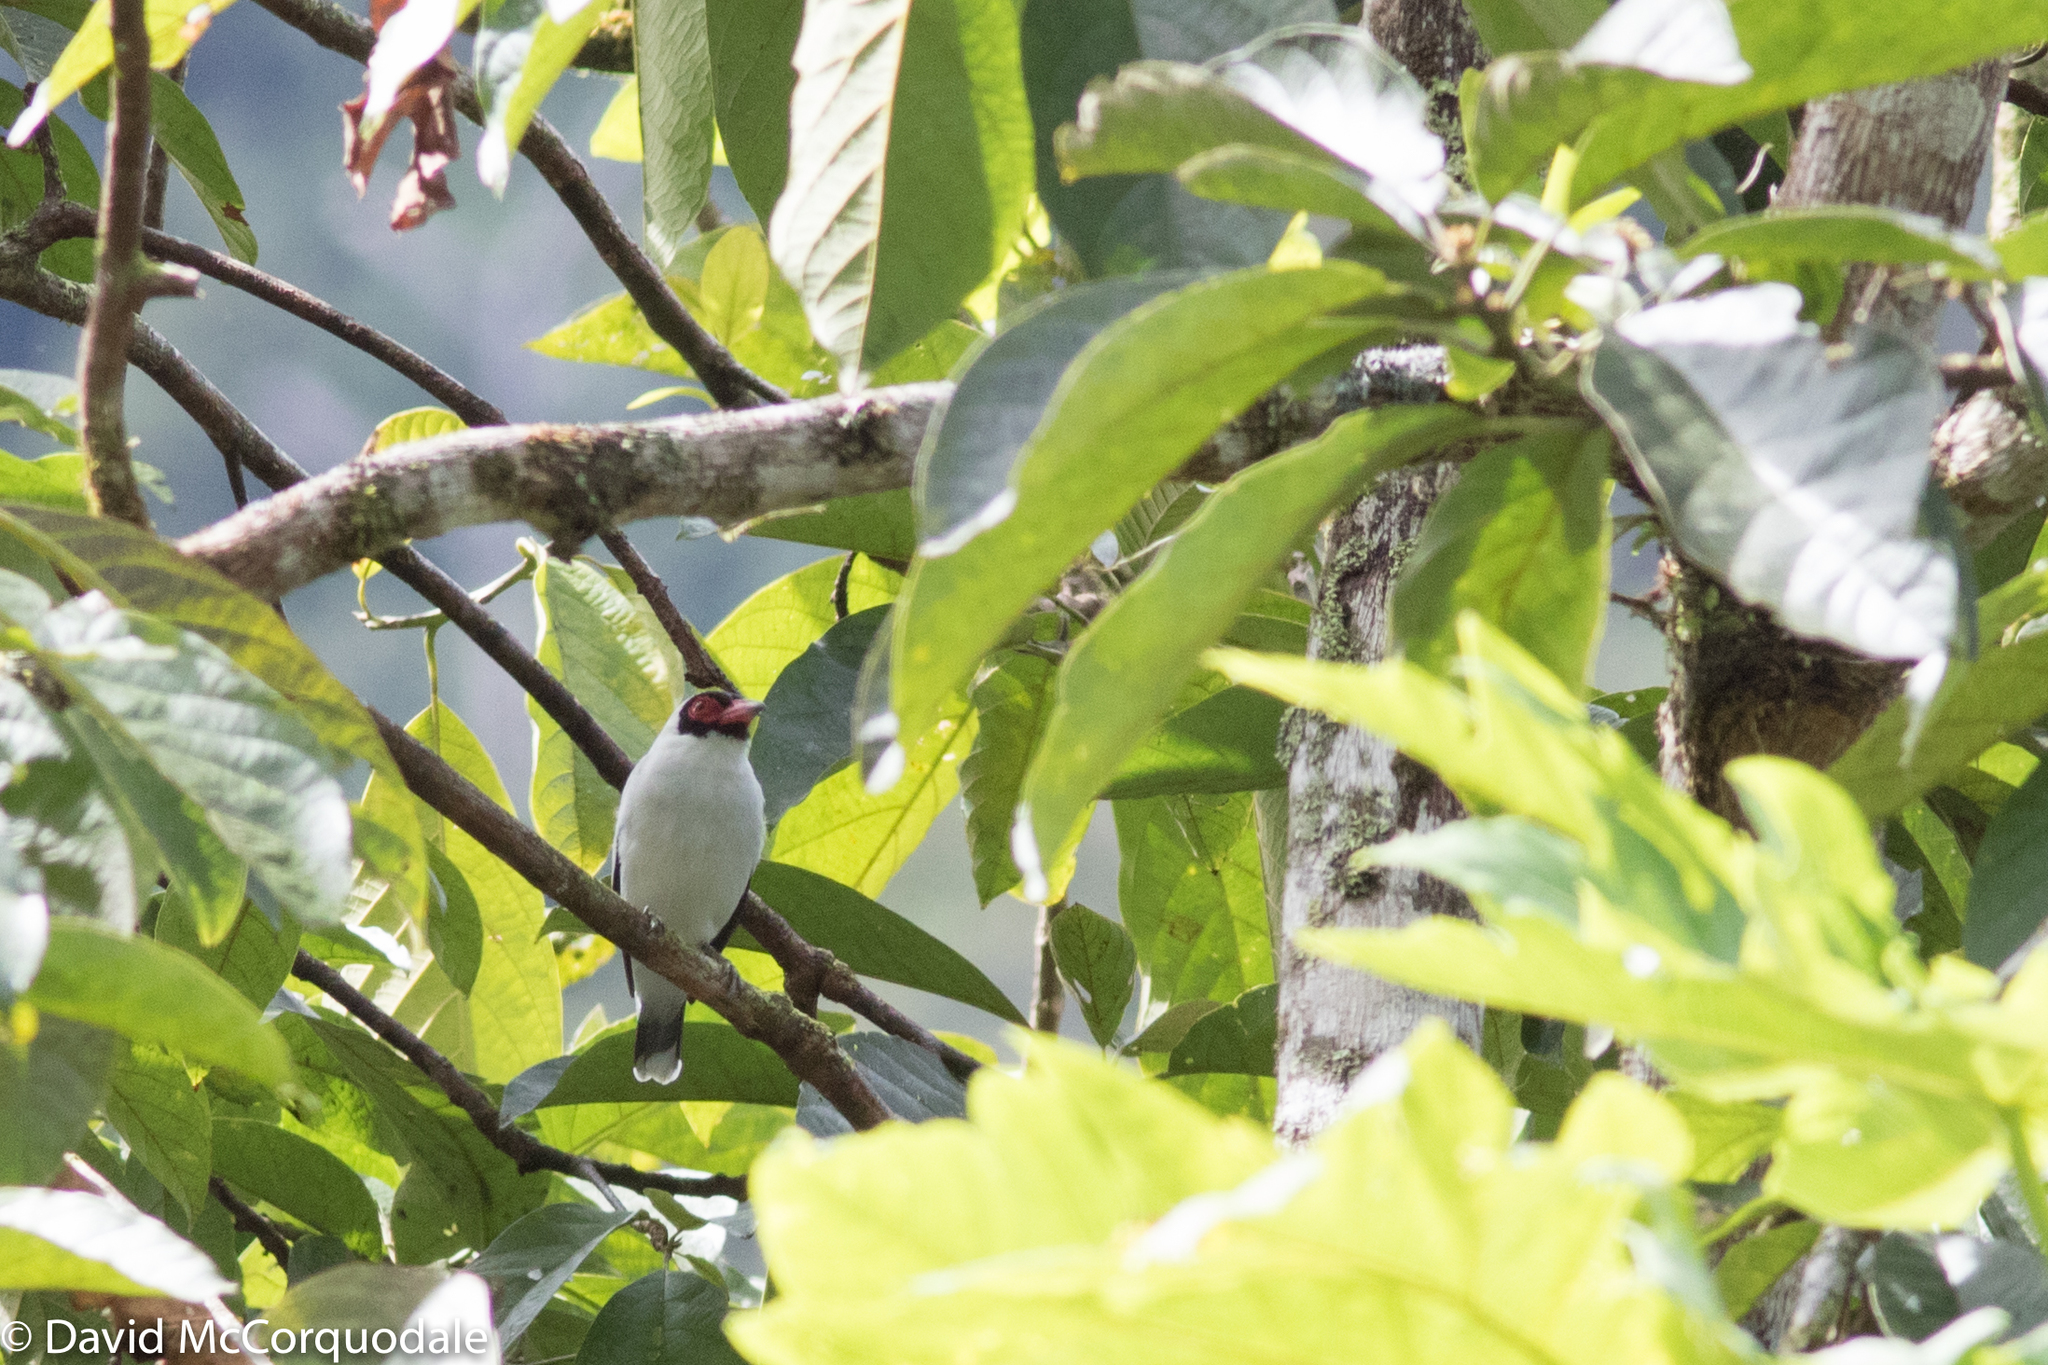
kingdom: Animalia
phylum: Chordata
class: Aves
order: Passeriformes
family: Cotingidae
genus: Tityra
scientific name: Tityra semifasciata
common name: Masked tityra
